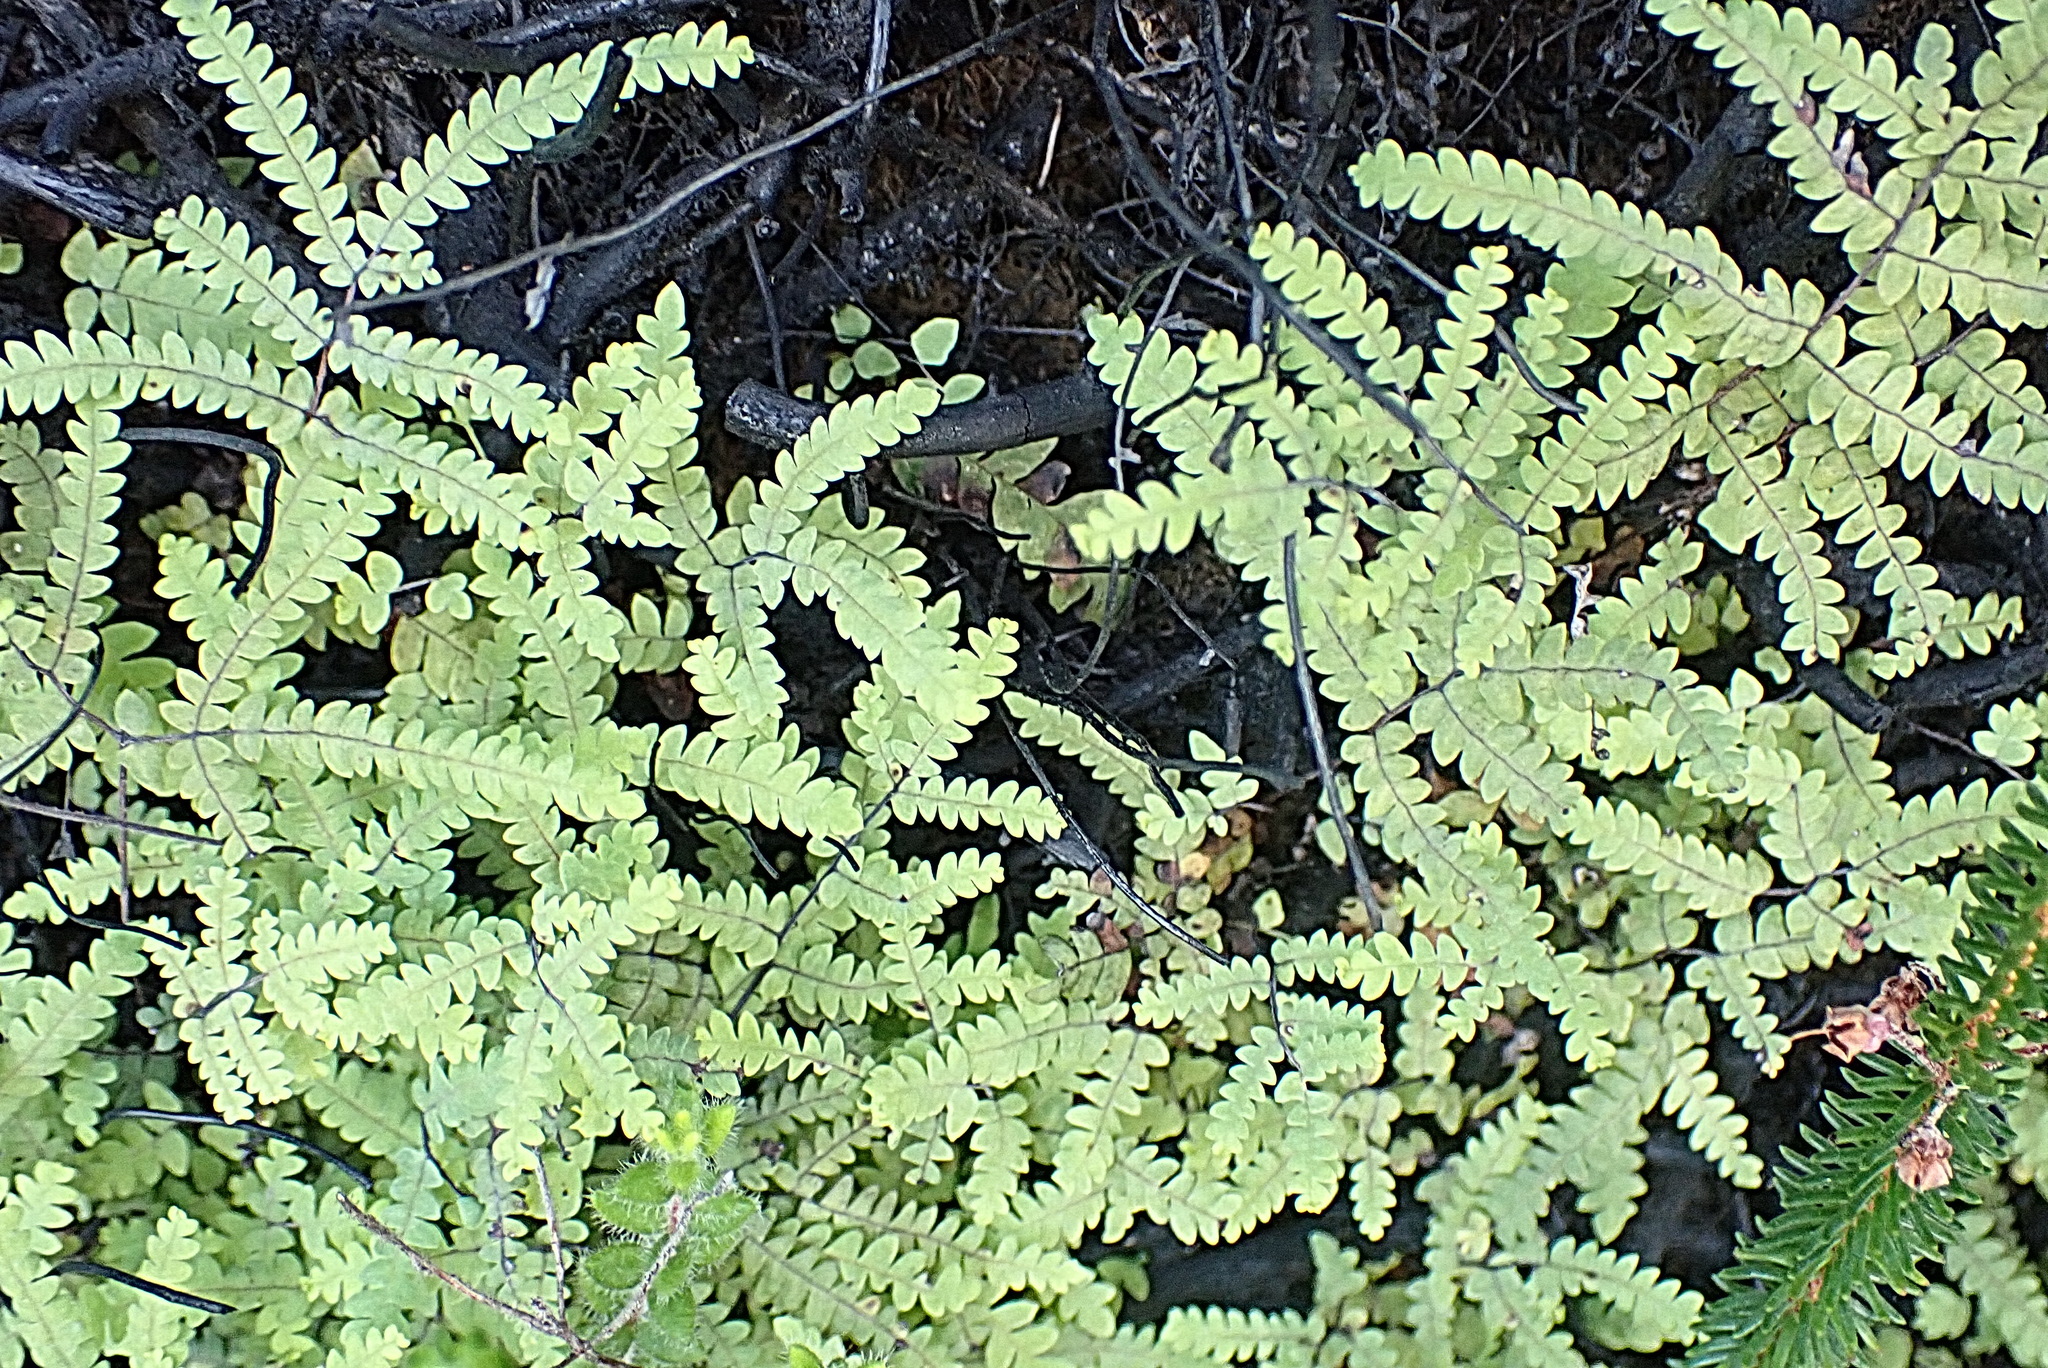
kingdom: Plantae
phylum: Tracheophyta
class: Polypodiopsida
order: Gleicheniales
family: Gleicheniaceae
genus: Gleichenia
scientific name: Gleichenia polypodioides
